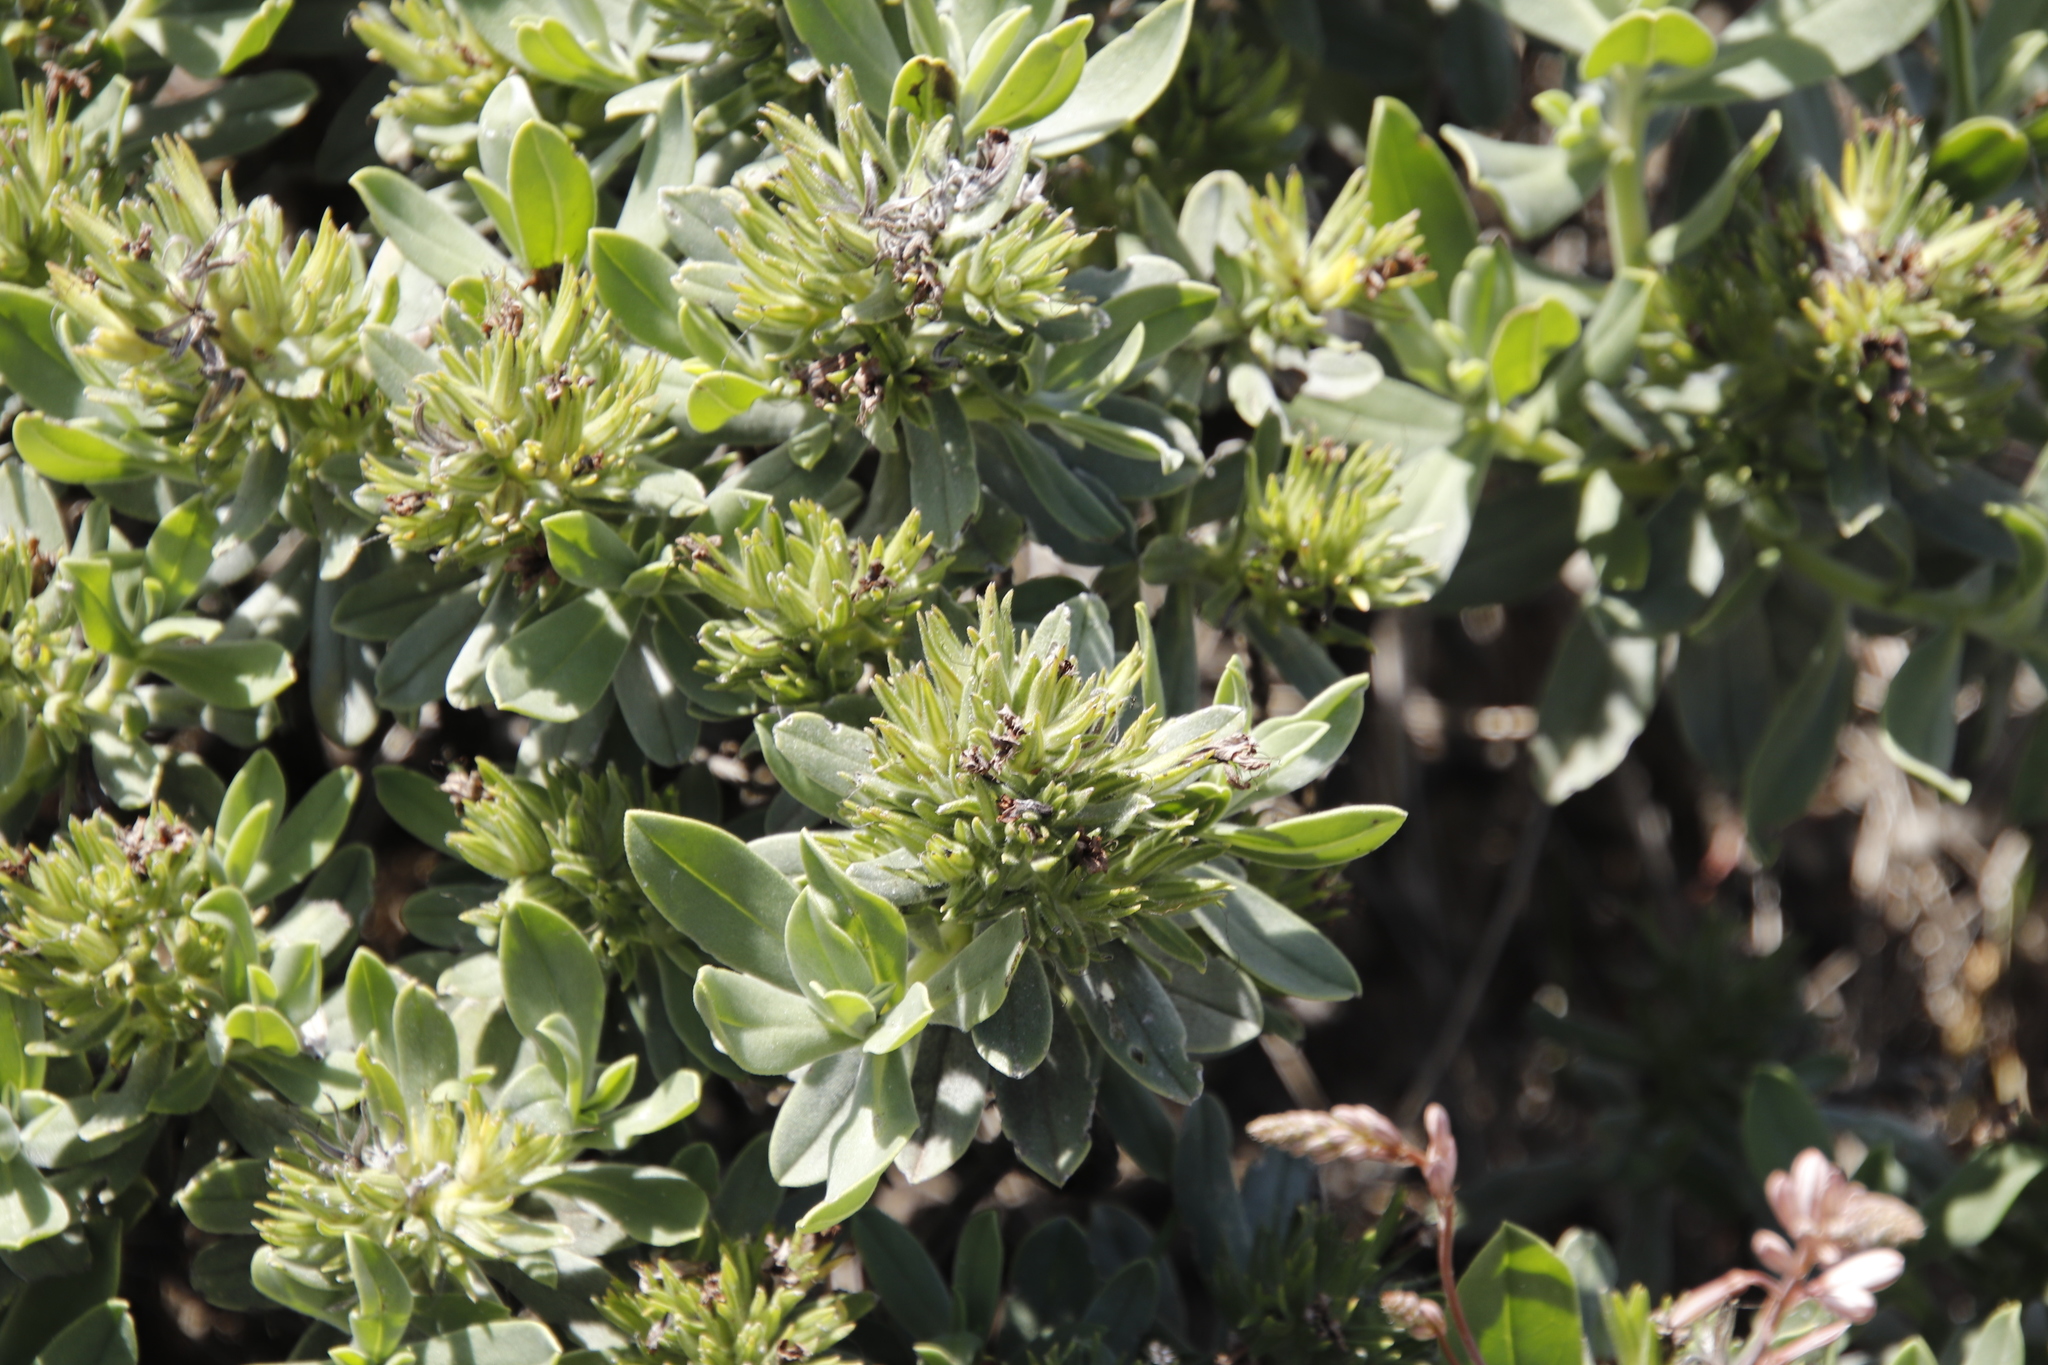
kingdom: Plantae
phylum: Tracheophyta
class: Magnoliopsida
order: Boraginales
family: Boraginaceae
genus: Lobostemon
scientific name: Lobostemon montanus
